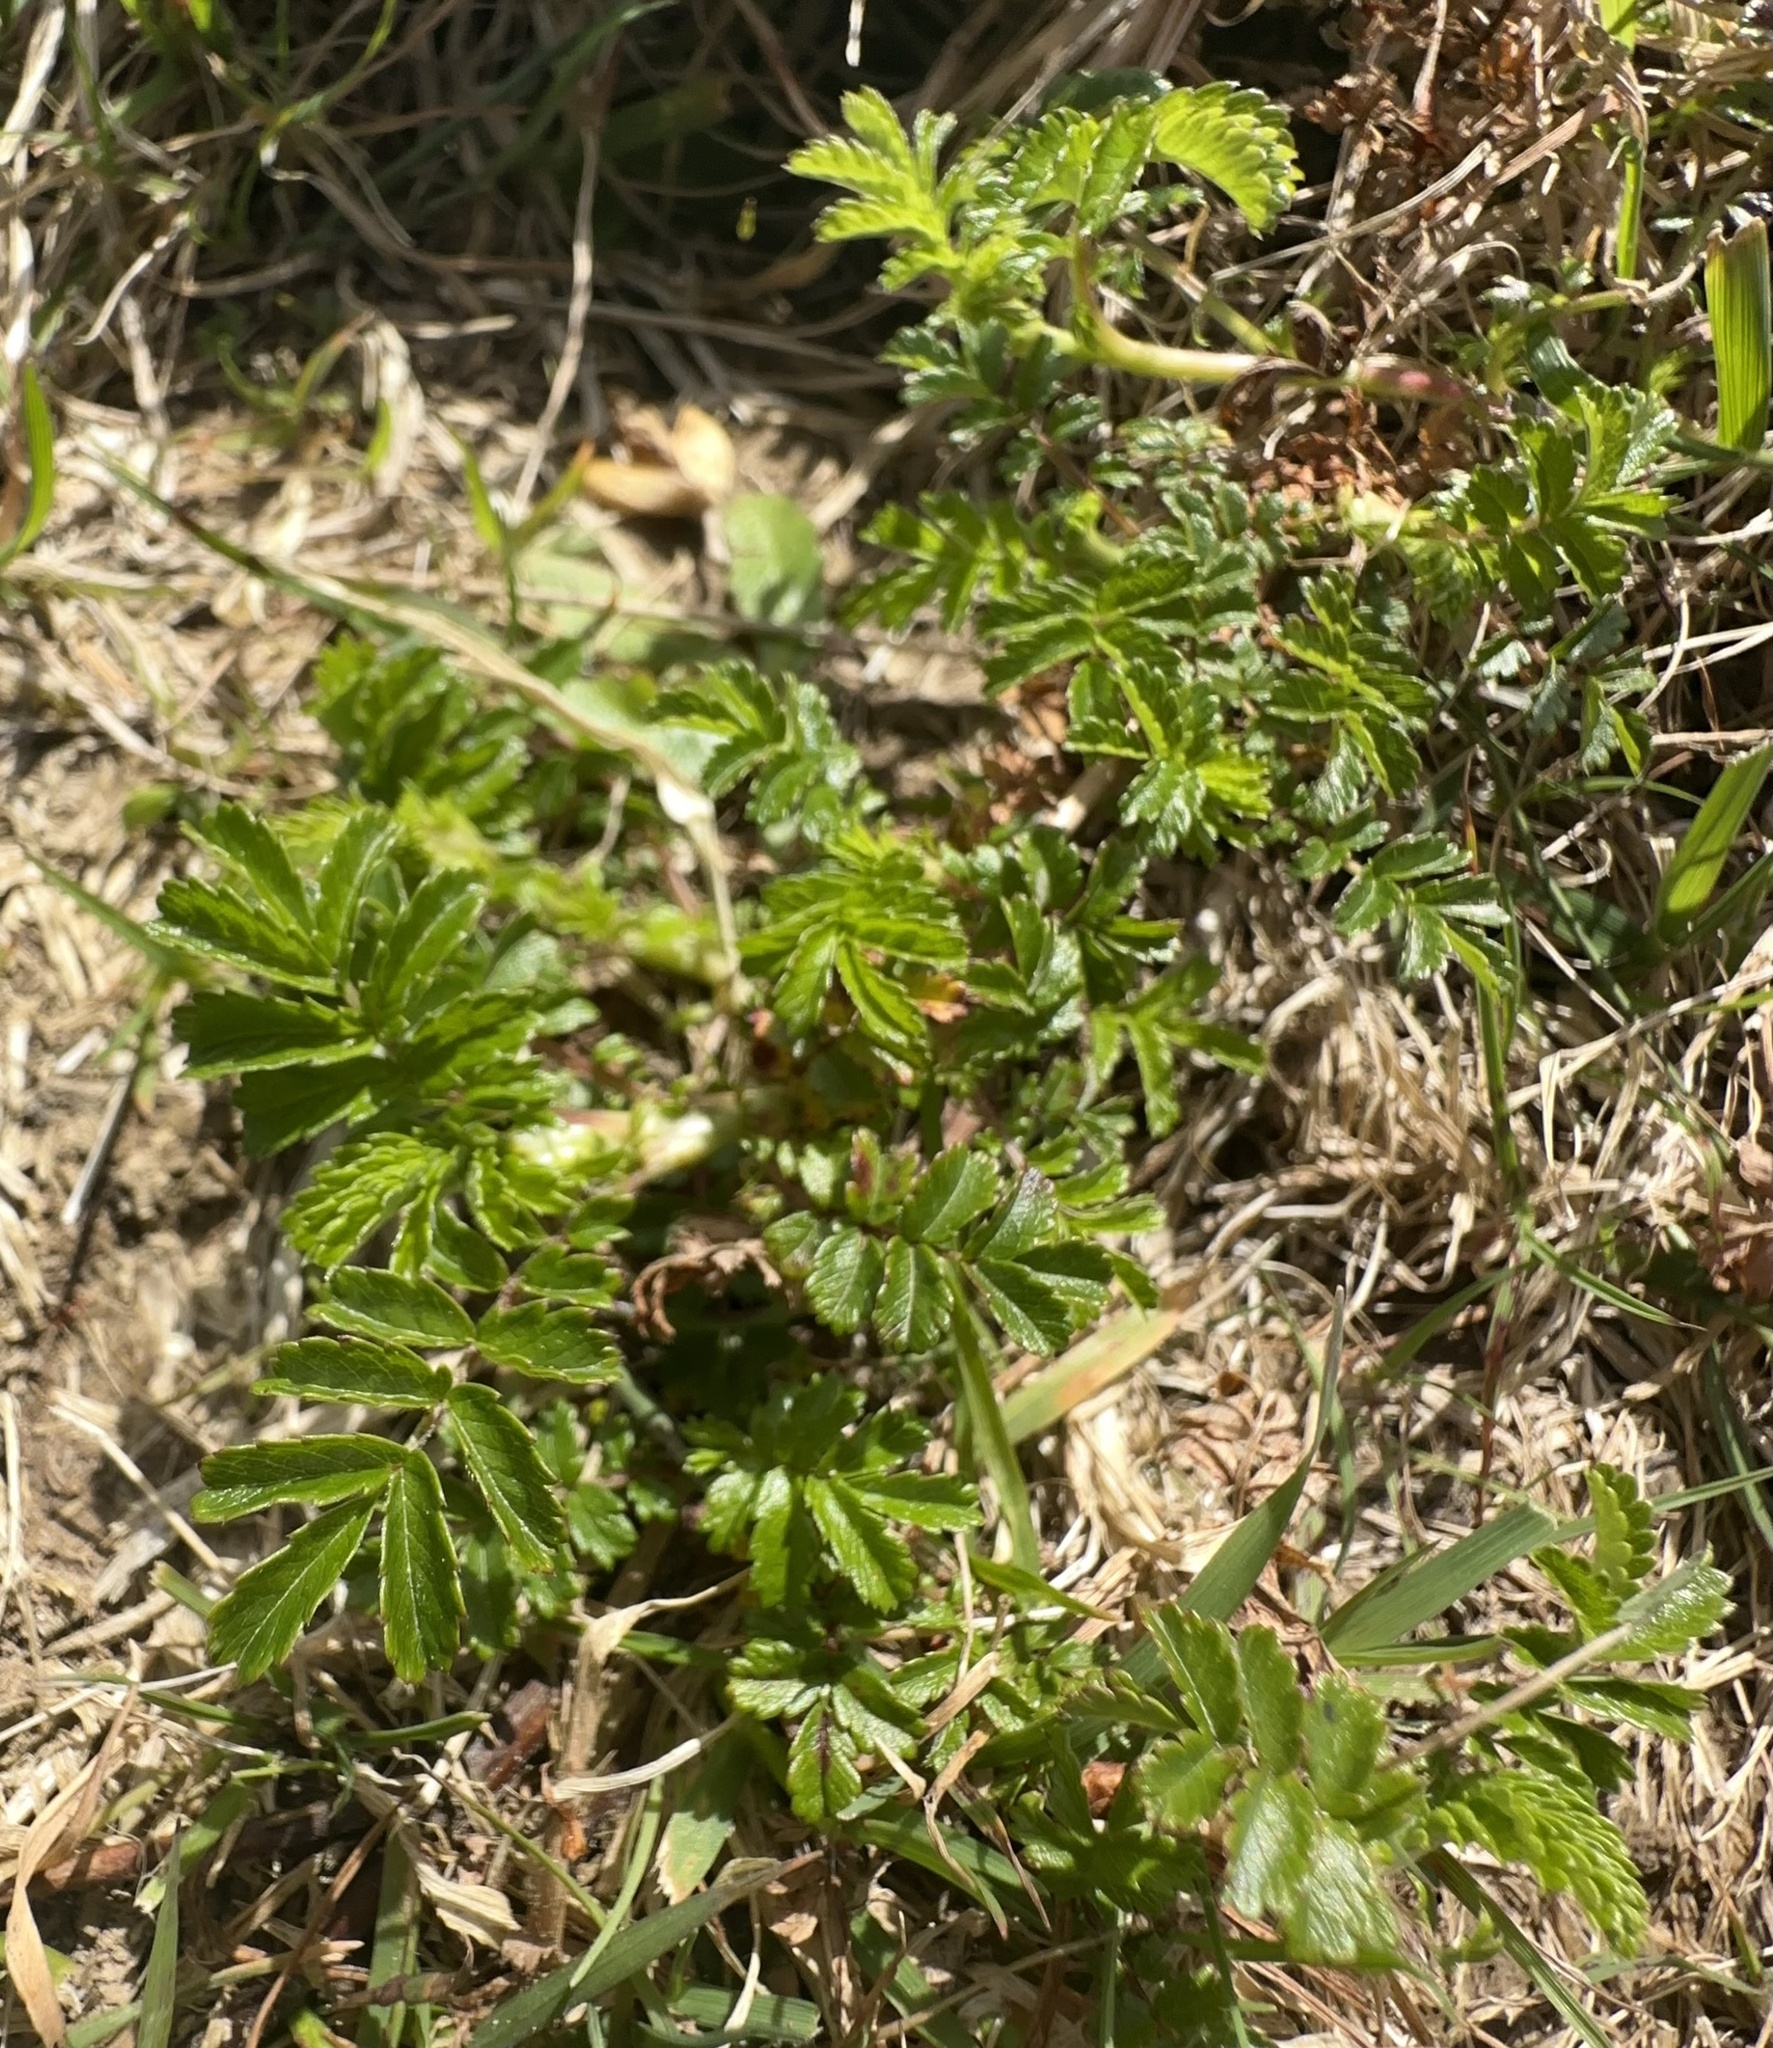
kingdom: Plantae
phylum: Tracheophyta
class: Magnoliopsida
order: Rosales
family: Rosaceae
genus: Acaena
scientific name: Acaena novae-zelandiae
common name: Pirri-pirri-bur
